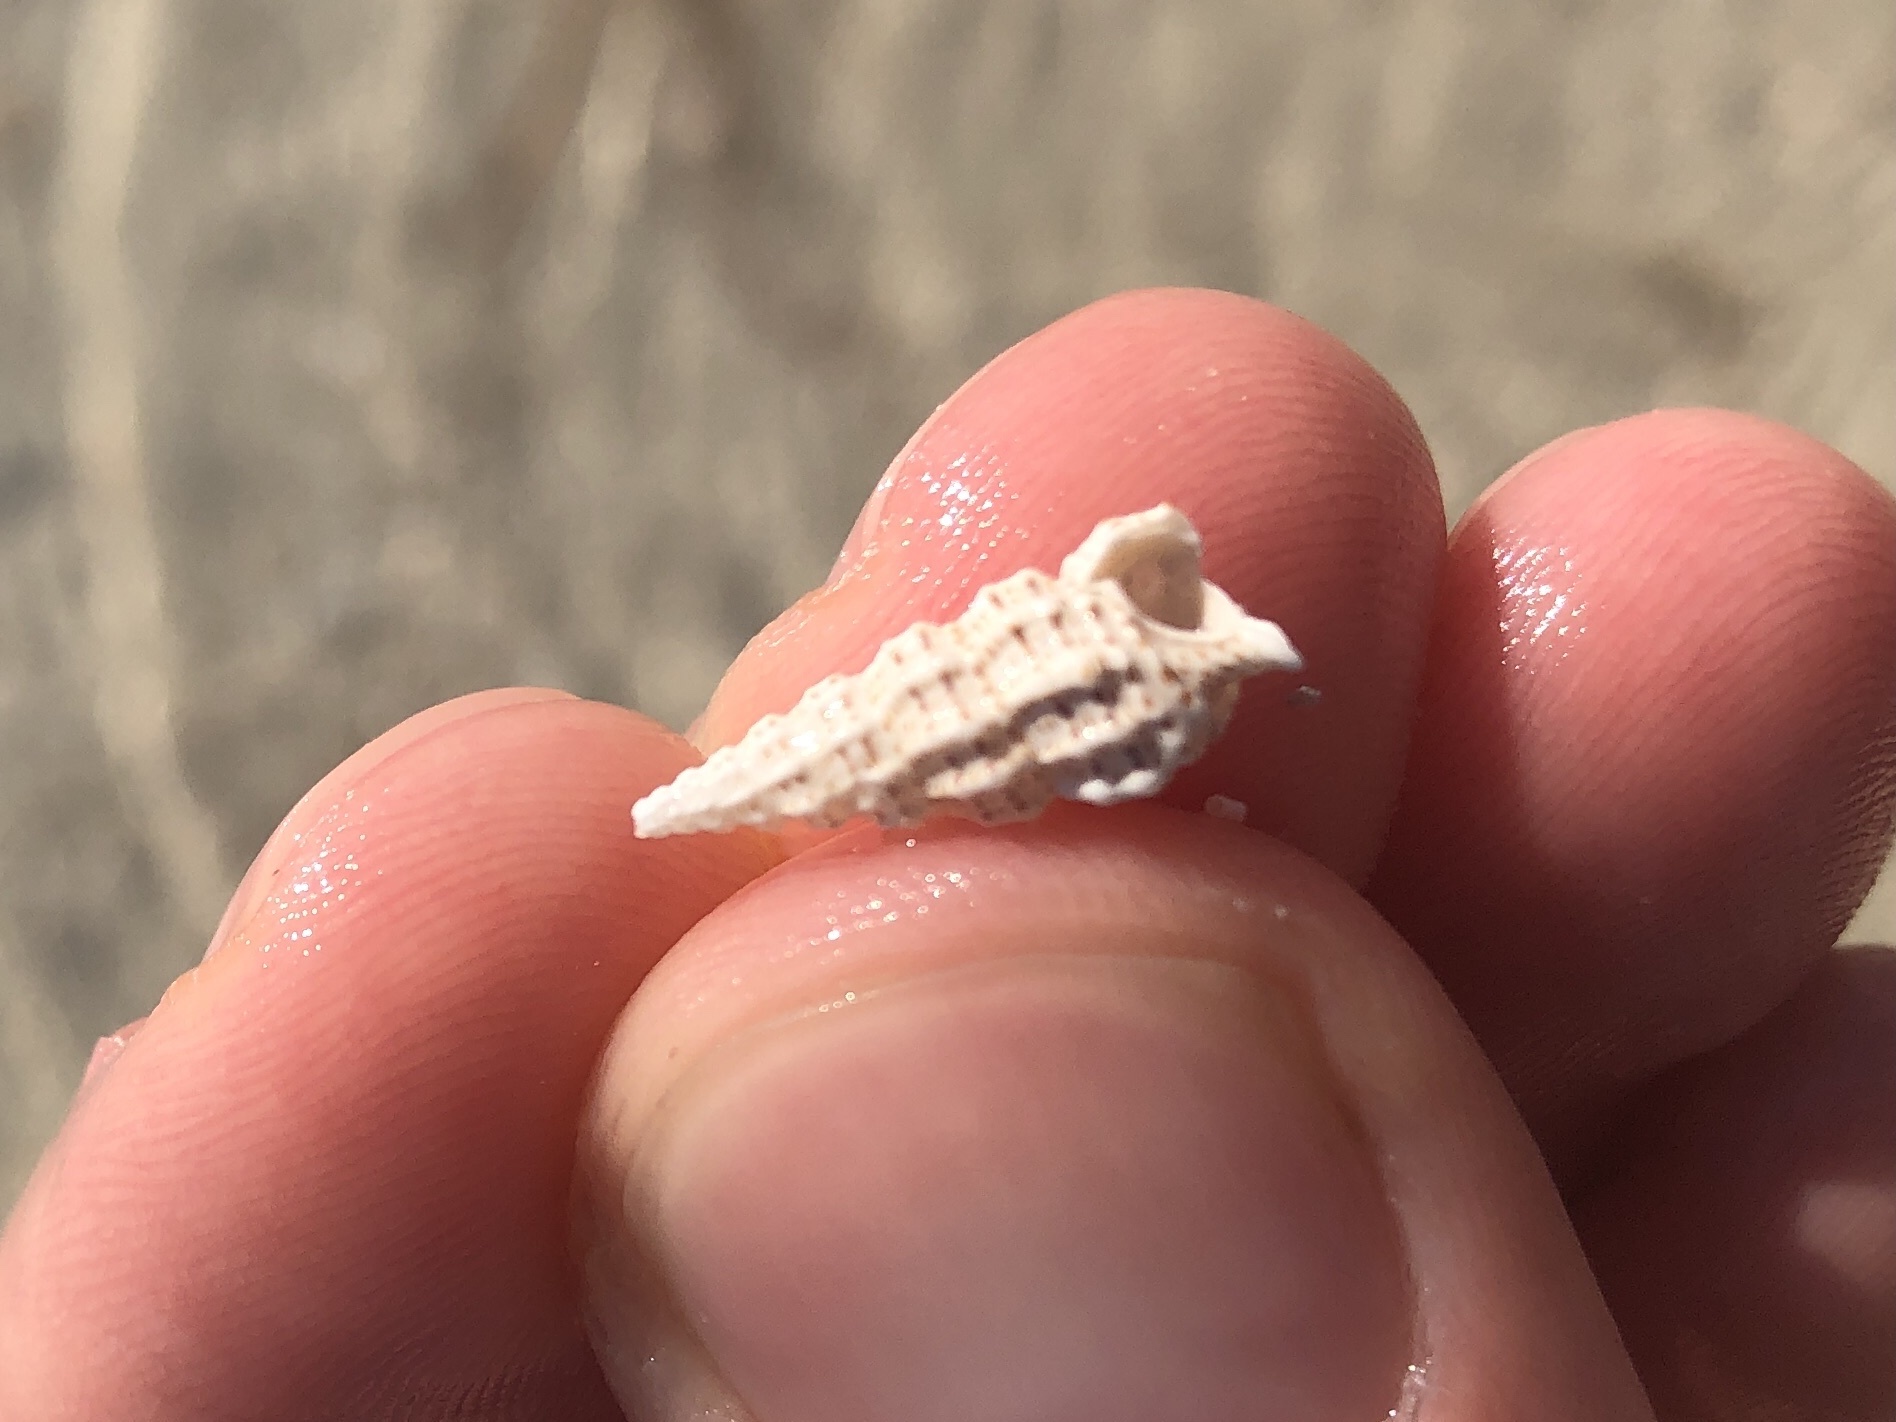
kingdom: Animalia
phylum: Mollusca
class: Gastropoda
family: Cerithiidae
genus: Cerithium
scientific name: Cerithium muscarum
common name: Fly-specked cerith
